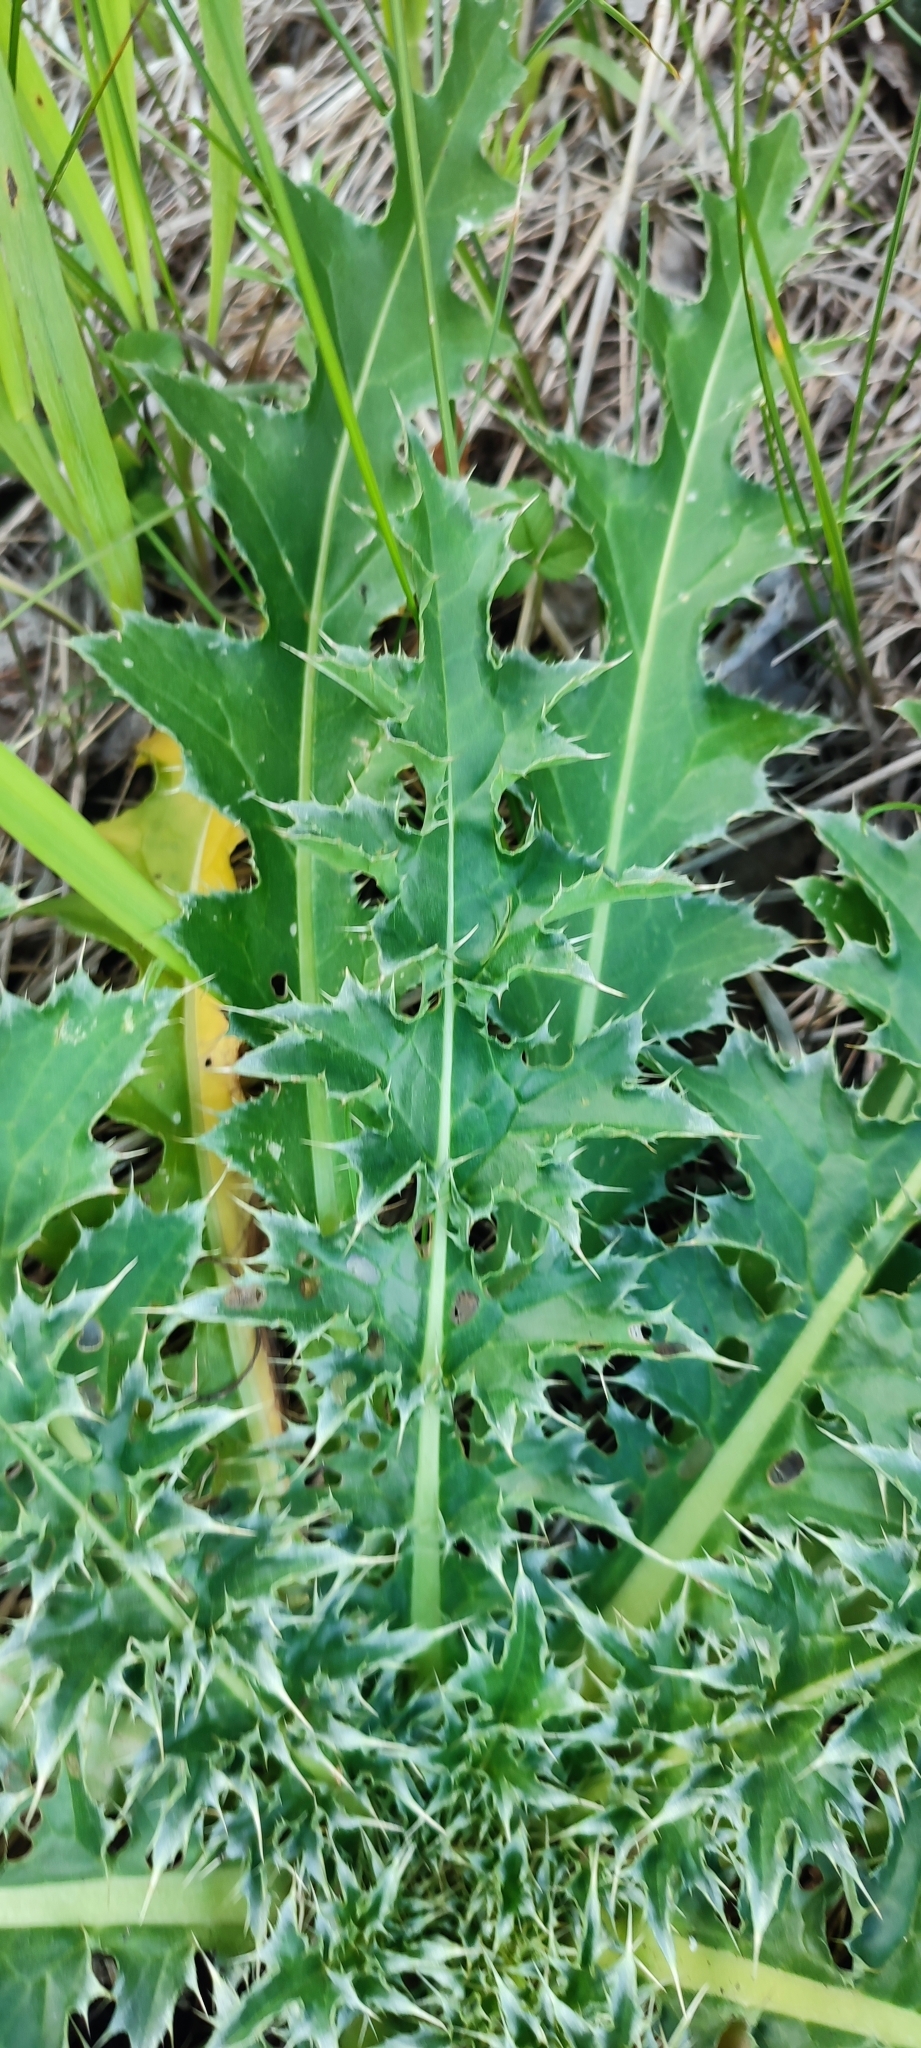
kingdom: Plantae
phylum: Tracheophyta
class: Magnoliopsida
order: Asterales
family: Asteraceae
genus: Carduus
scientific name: Carduus nutans
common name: Musk thistle
